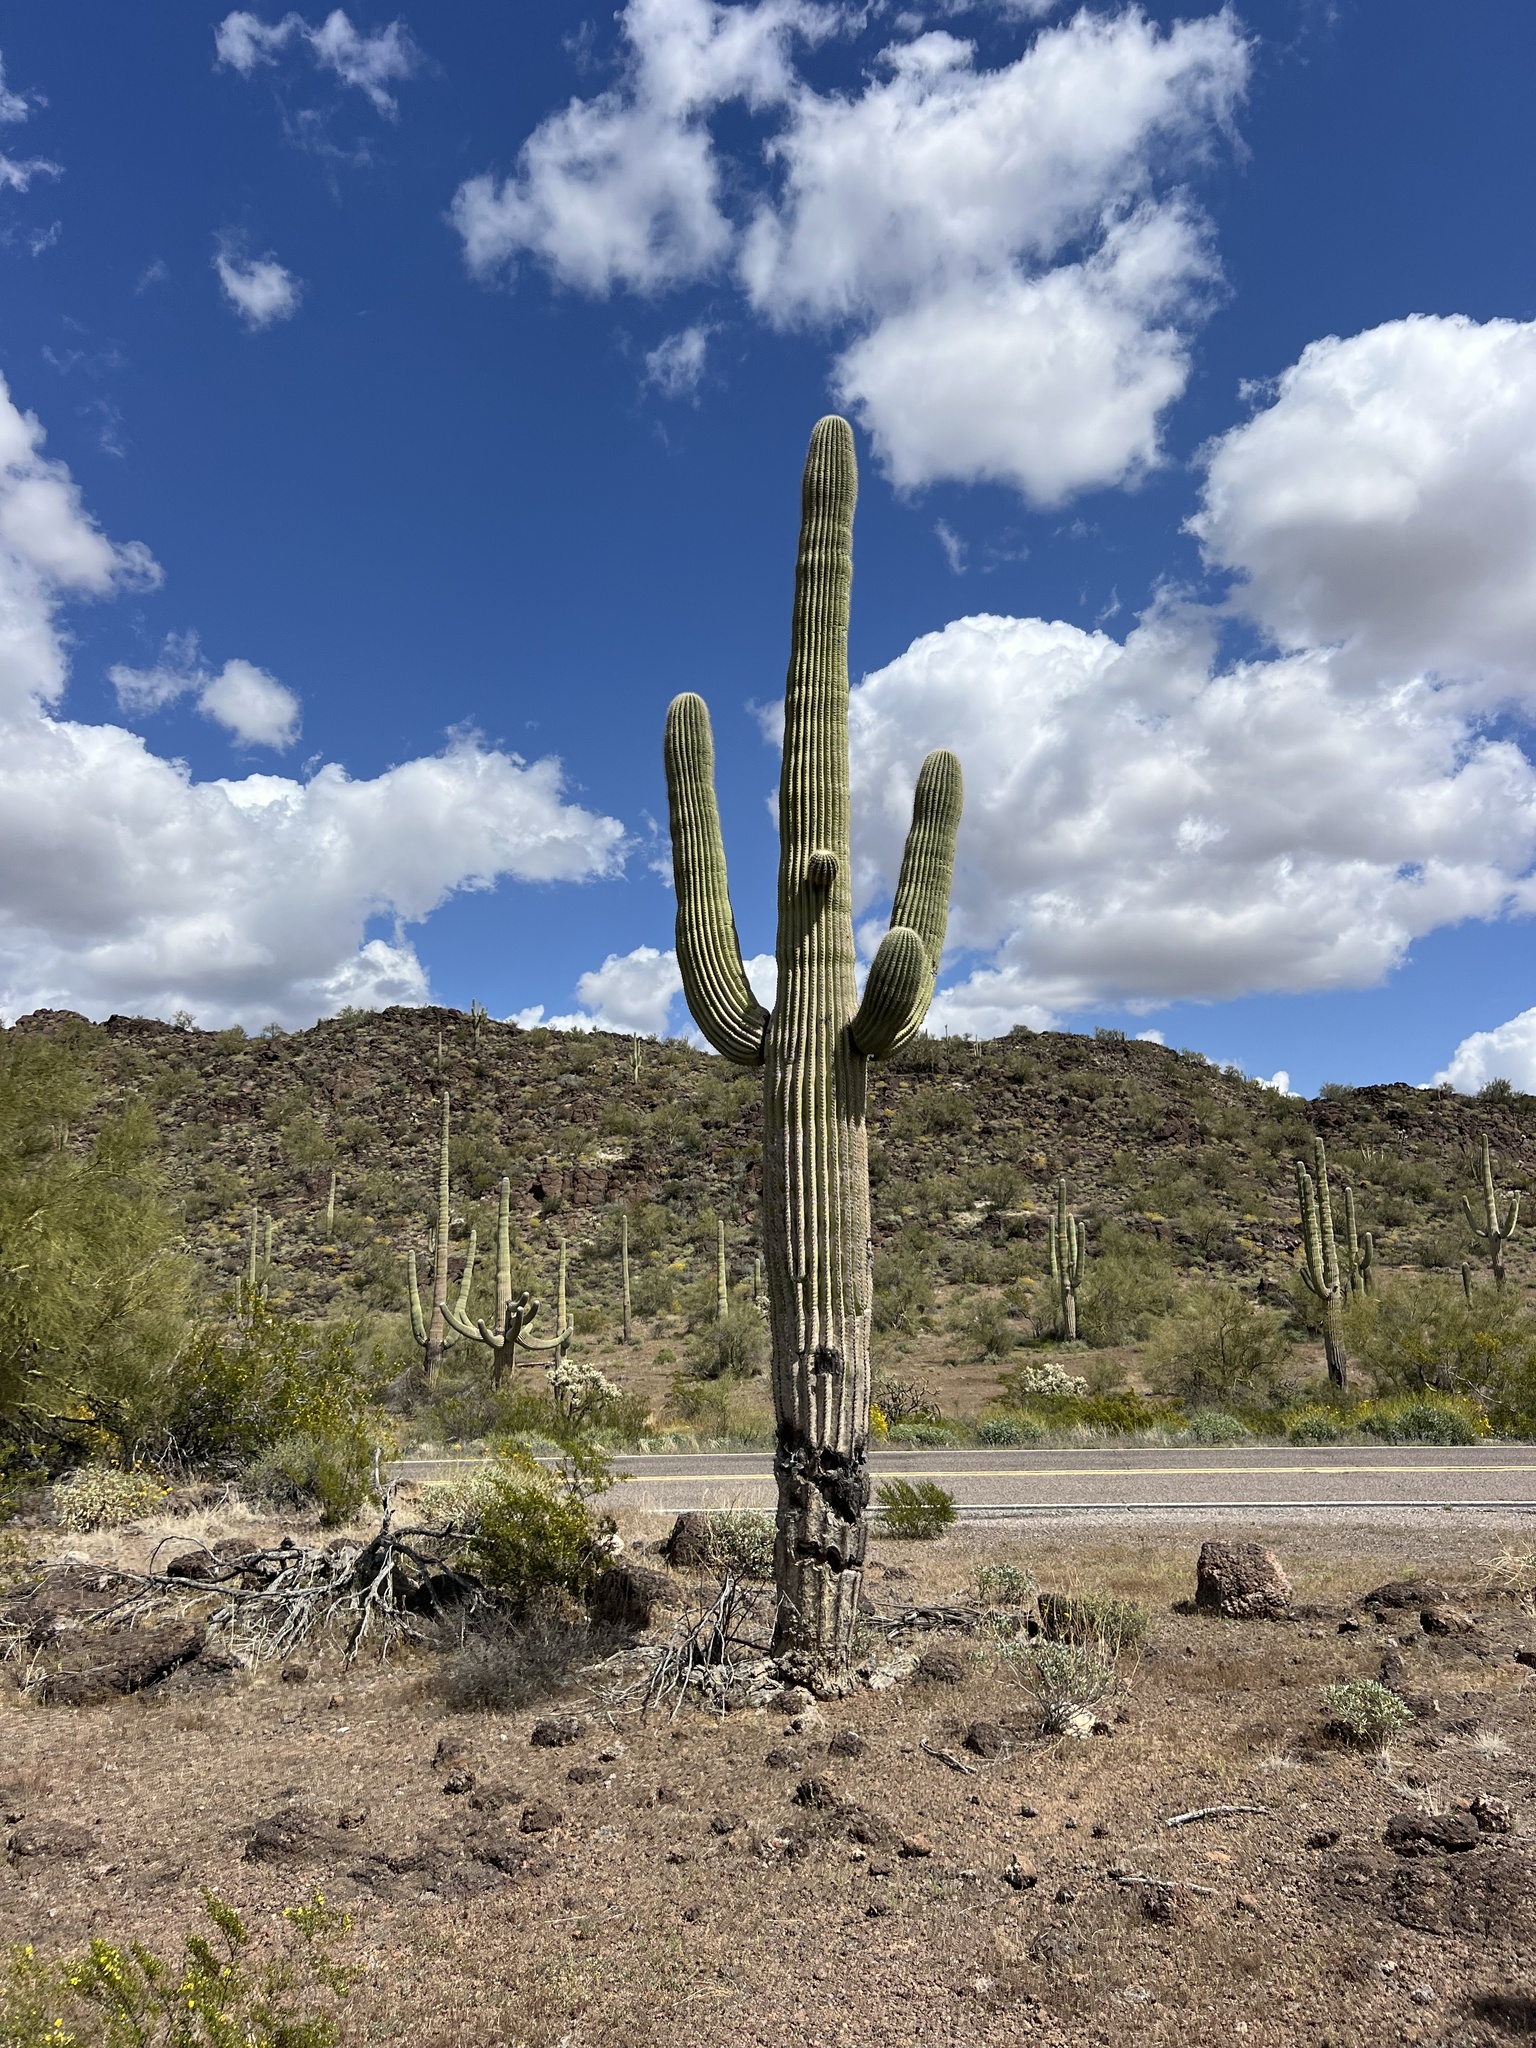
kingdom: Plantae
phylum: Tracheophyta
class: Magnoliopsida
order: Caryophyllales
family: Cactaceae
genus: Carnegiea
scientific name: Carnegiea gigantea
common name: Saguaro
